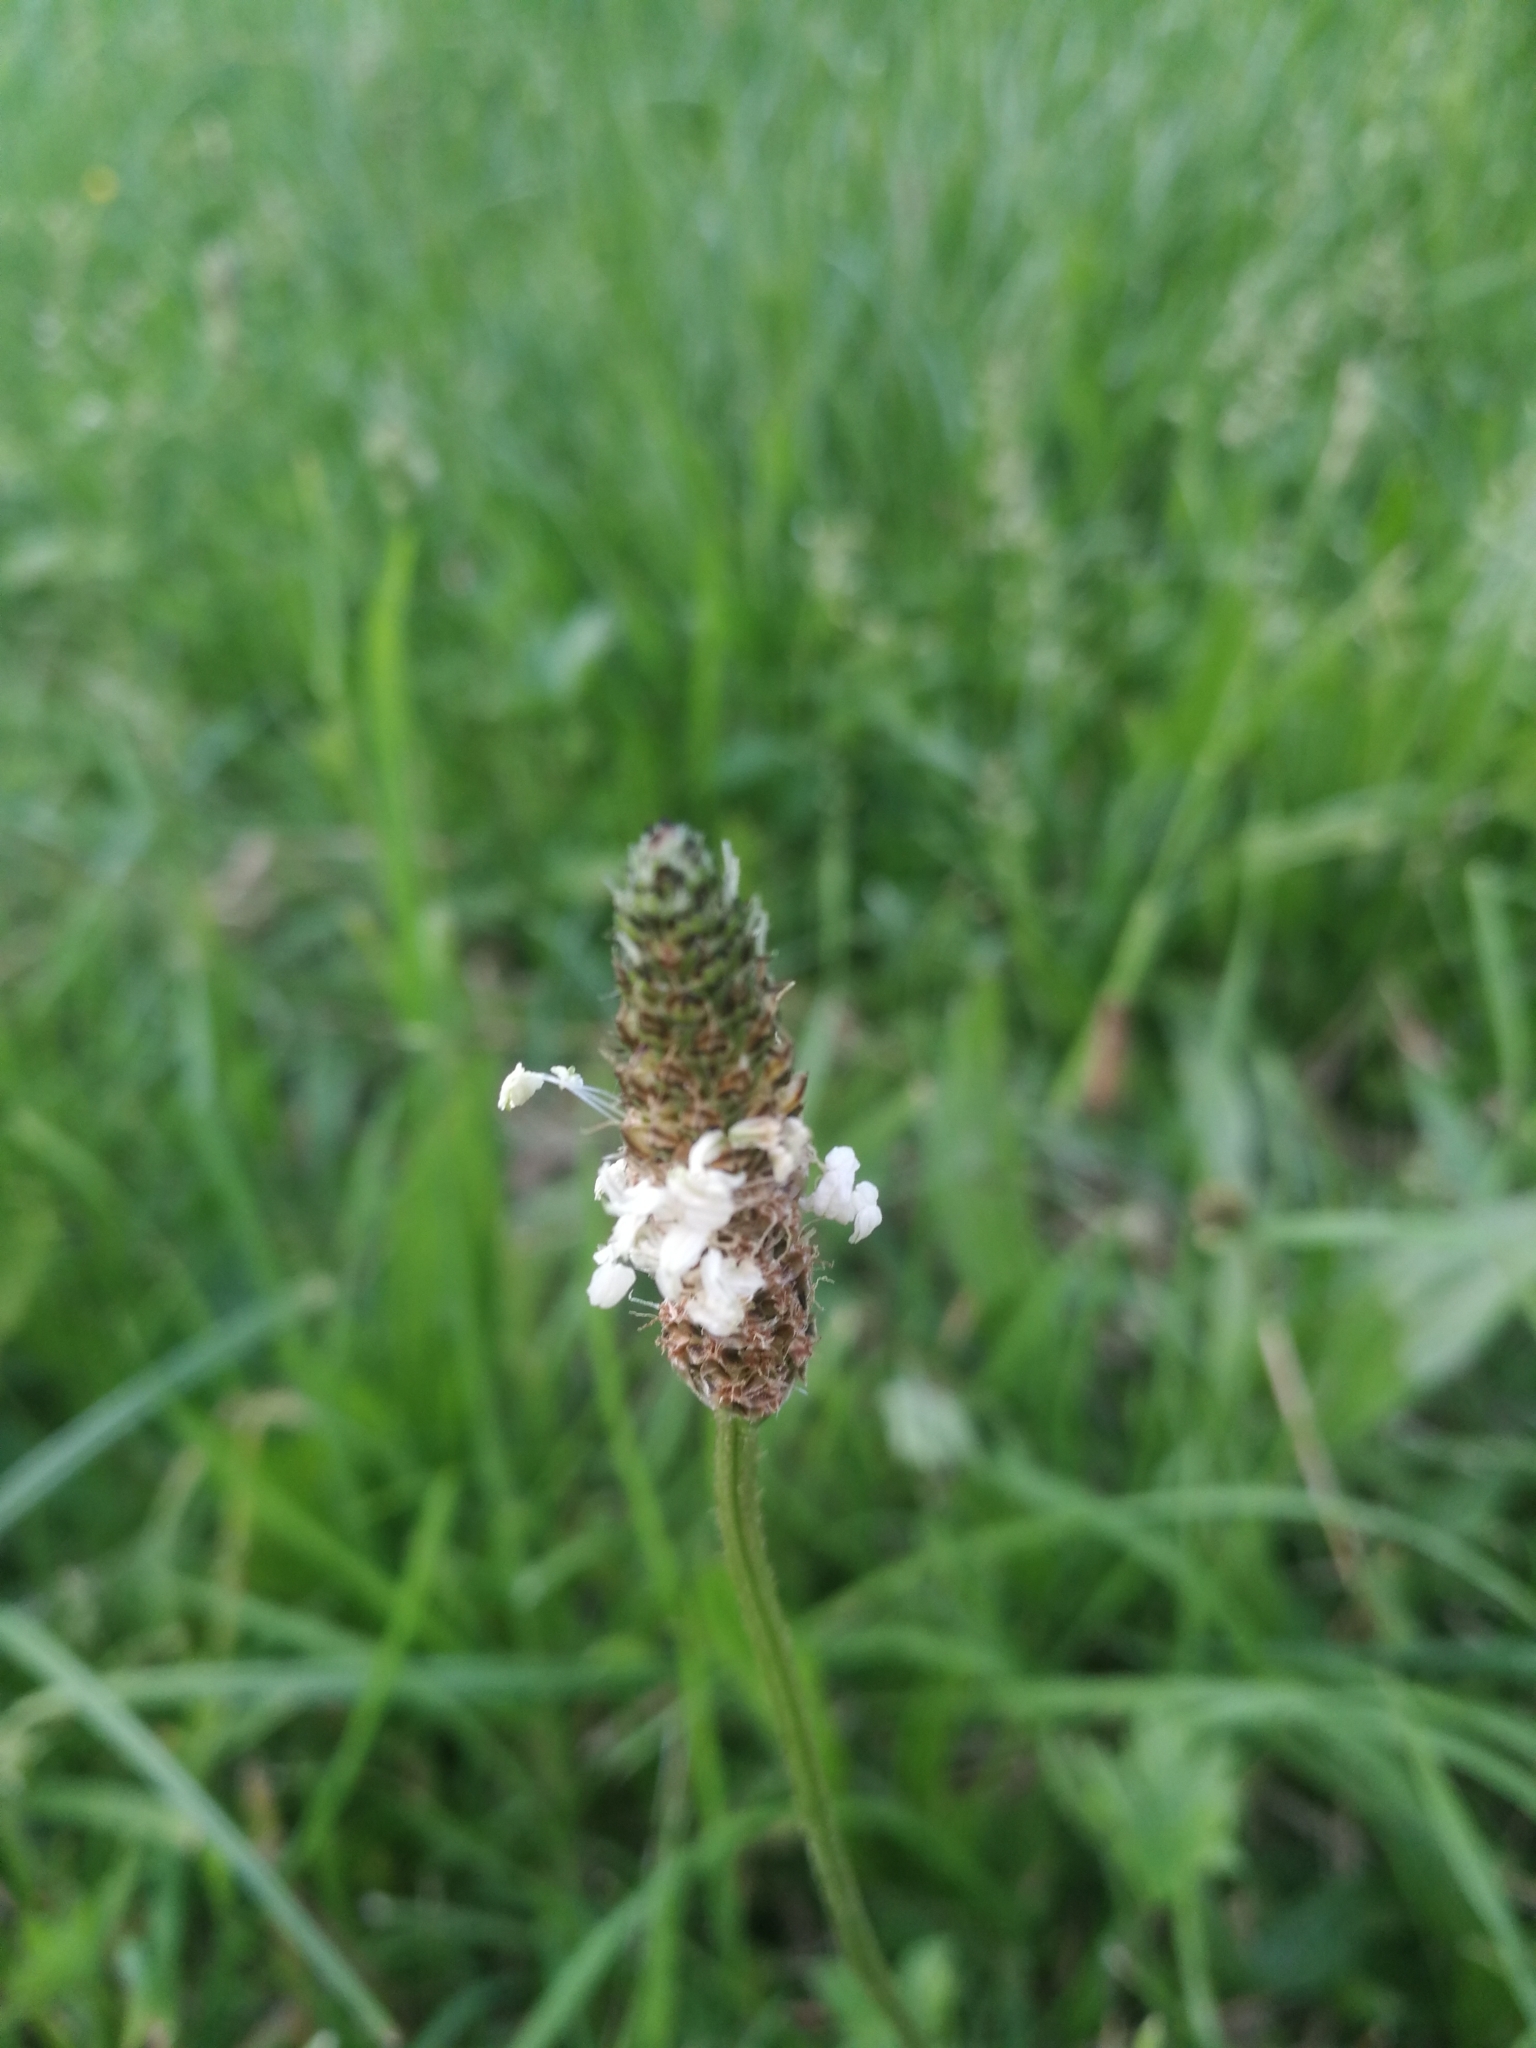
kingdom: Plantae
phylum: Tracheophyta
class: Magnoliopsida
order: Lamiales
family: Plantaginaceae
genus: Plantago
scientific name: Plantago lanceolata
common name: Ribwort plantain
